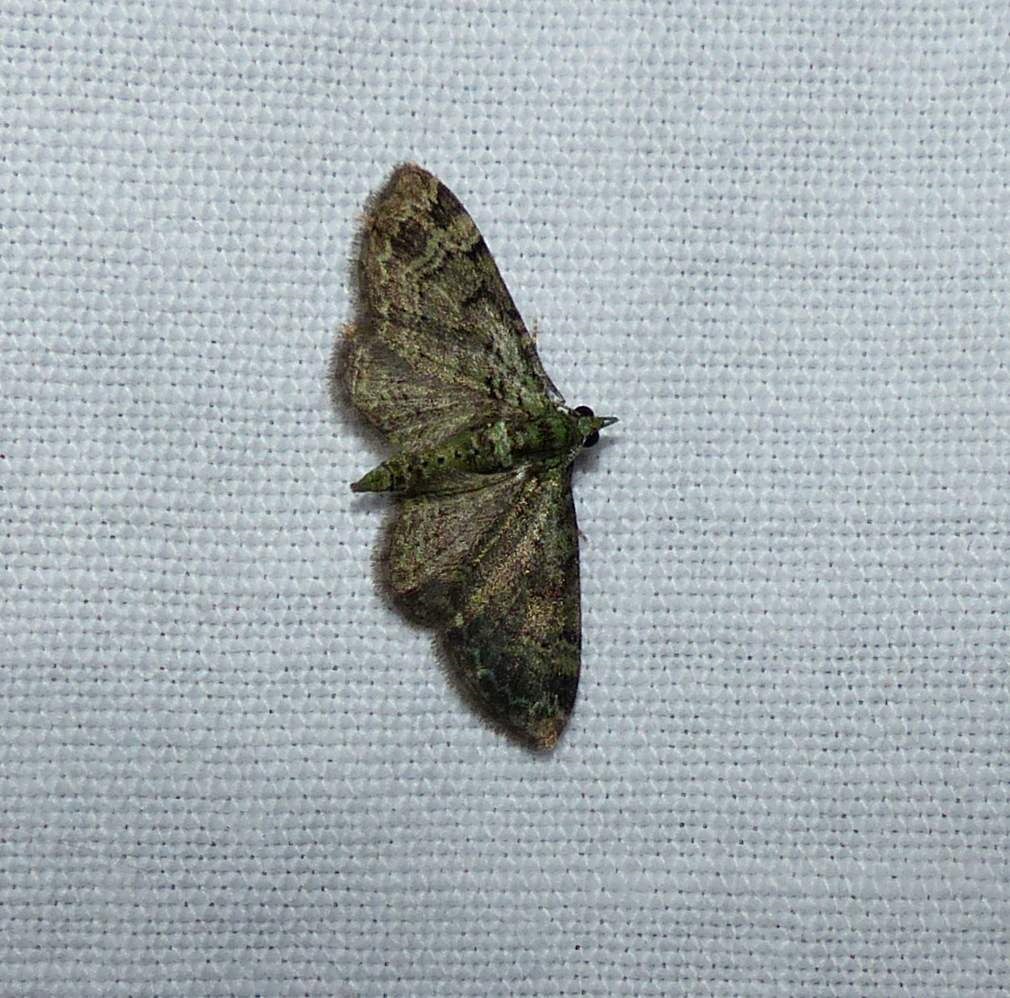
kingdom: Animalia
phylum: Arthropoda
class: Insecta
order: Lepidoptera
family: Geometridae
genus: Pasiphila
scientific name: Pasiphila rectangulata
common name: Green pug
